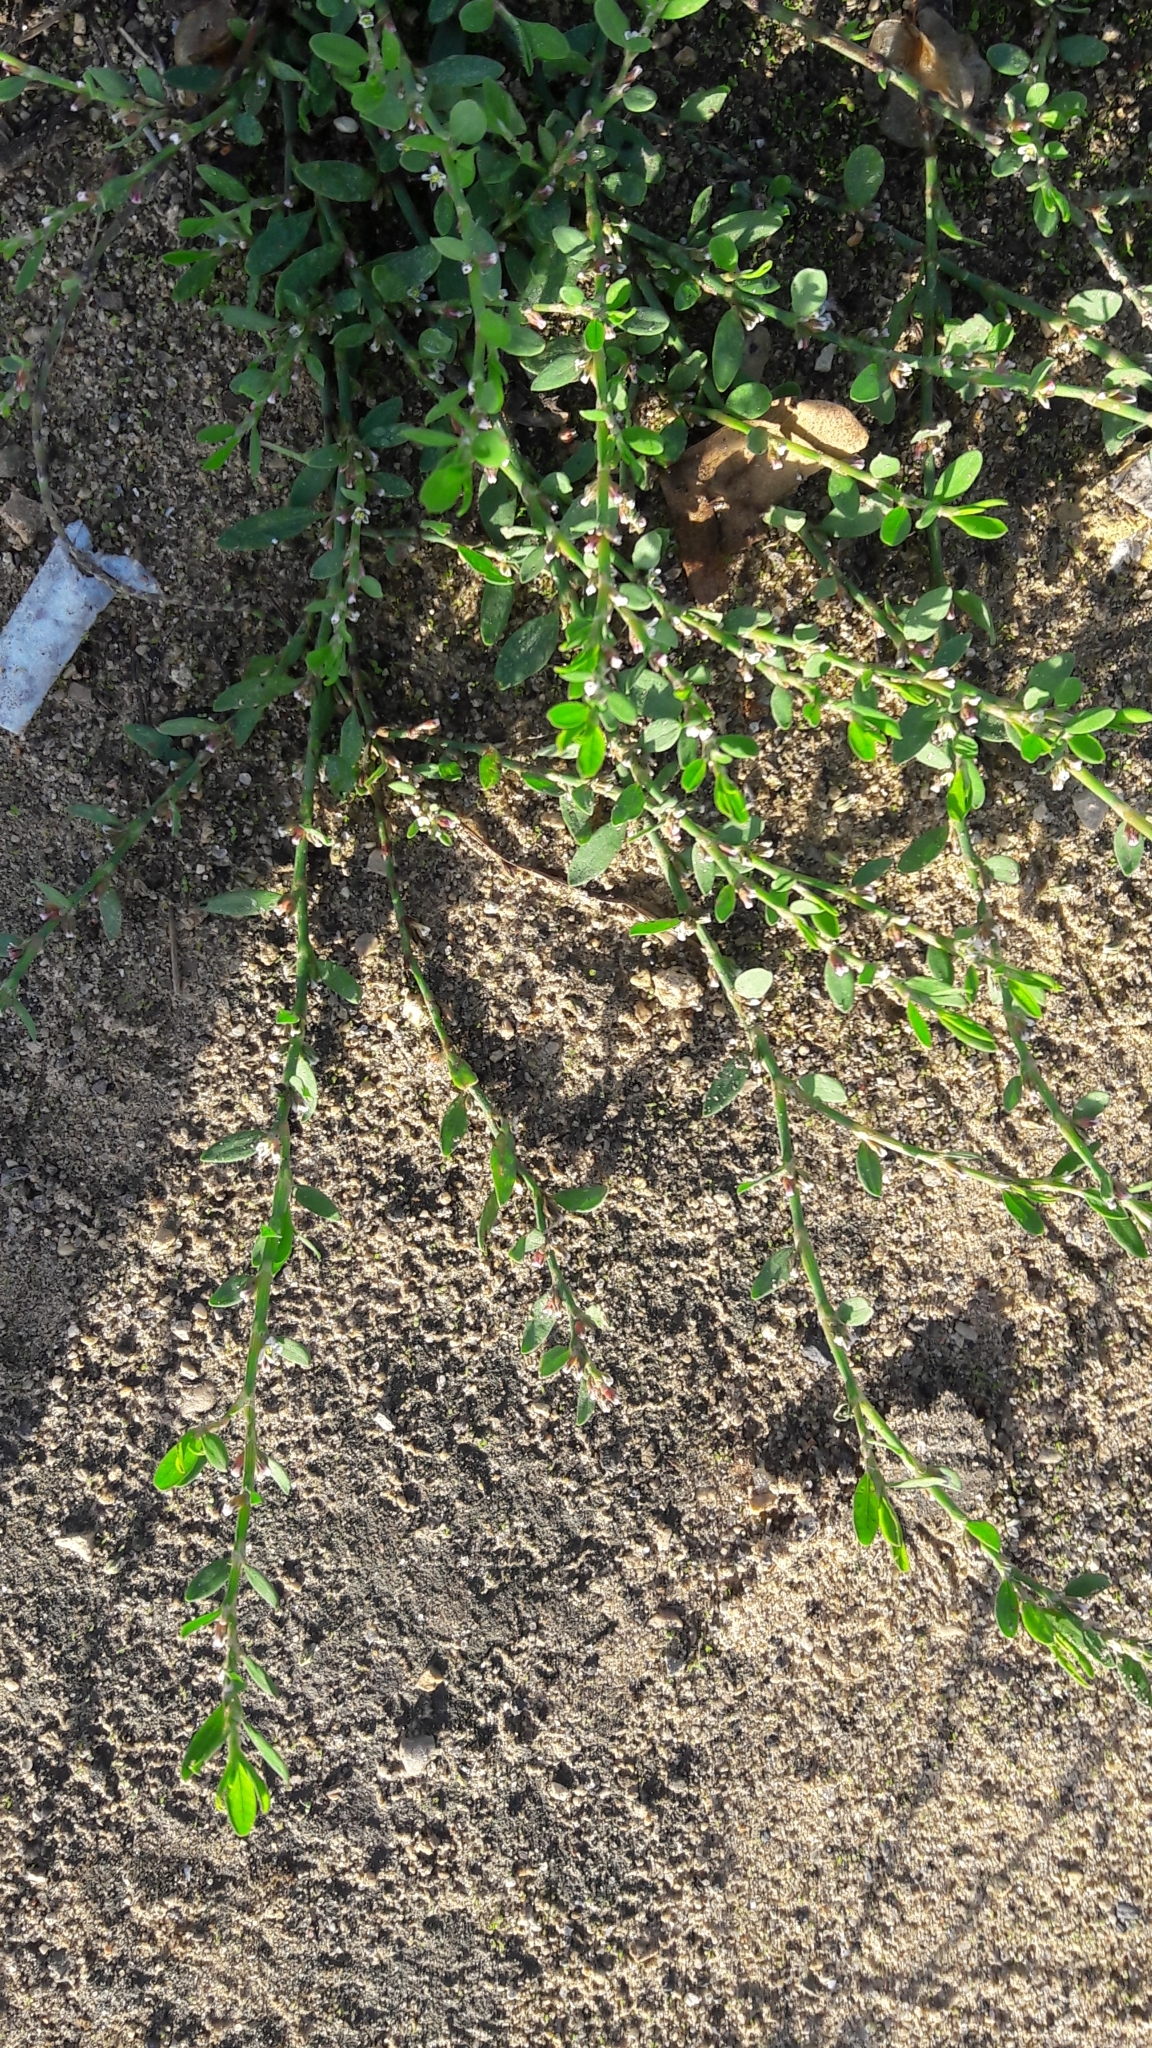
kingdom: Plantae
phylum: Tracheophyta
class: Magnoliopsida
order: Caryophyllales
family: Polygonaceae
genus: Polygonum
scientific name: Polygonum aviculare
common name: Prostrate knotweed
